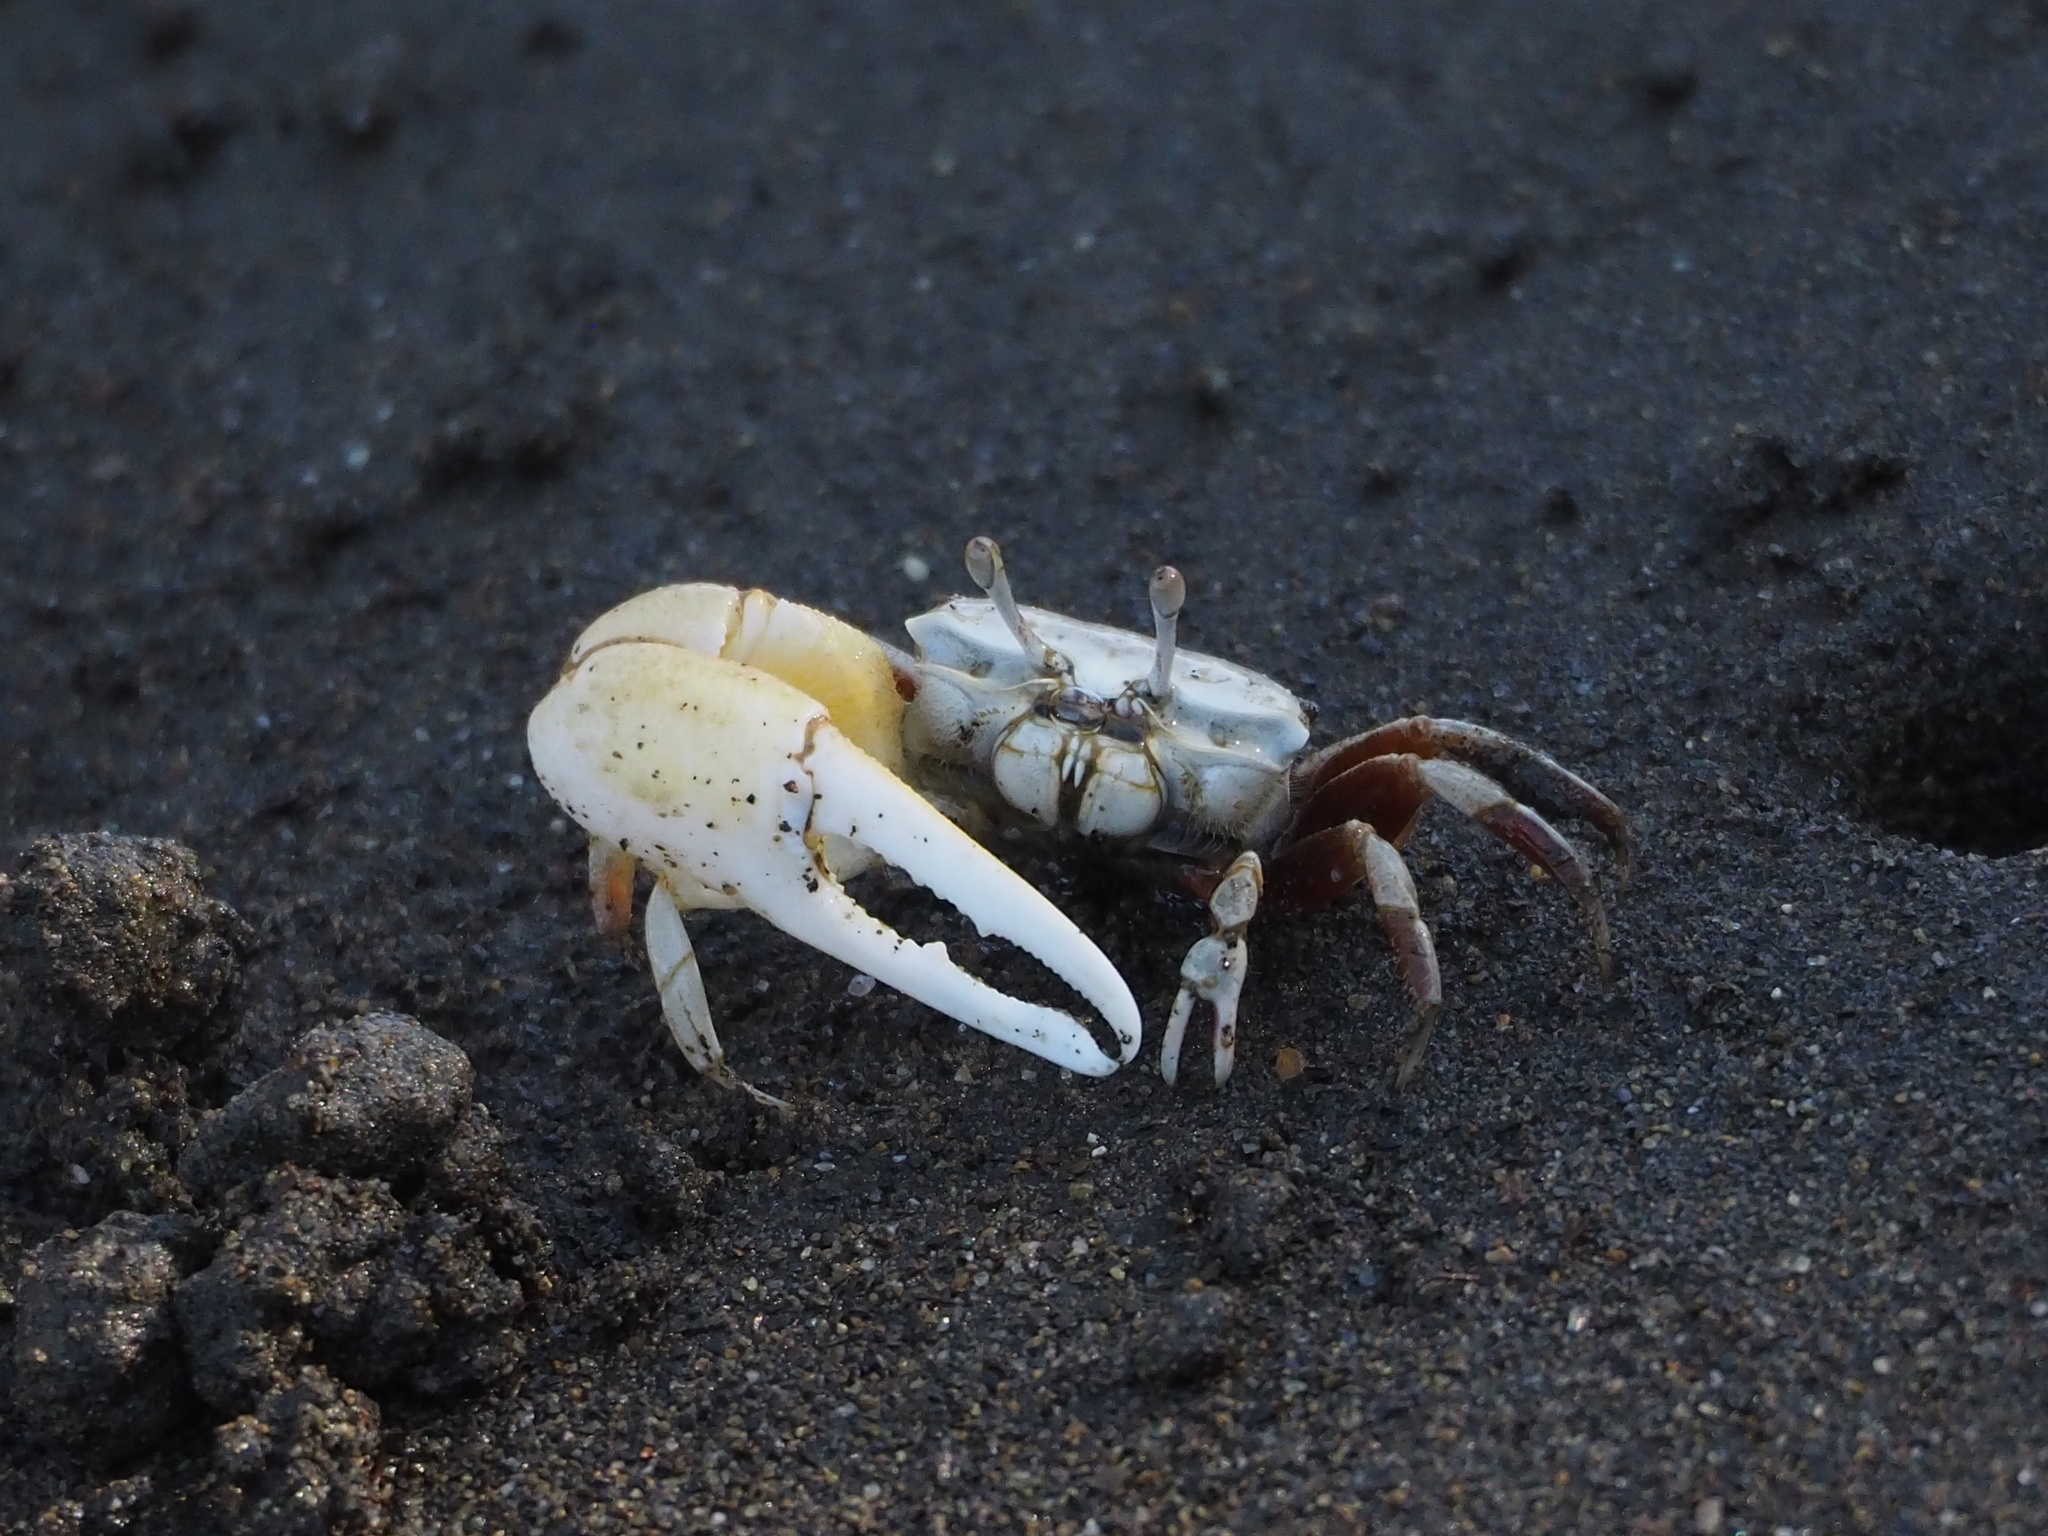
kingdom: Animalia
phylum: Arthropoda
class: Malacostraca
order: Decapoda
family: Ocypodidae
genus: Austruca
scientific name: Austruca lactea
